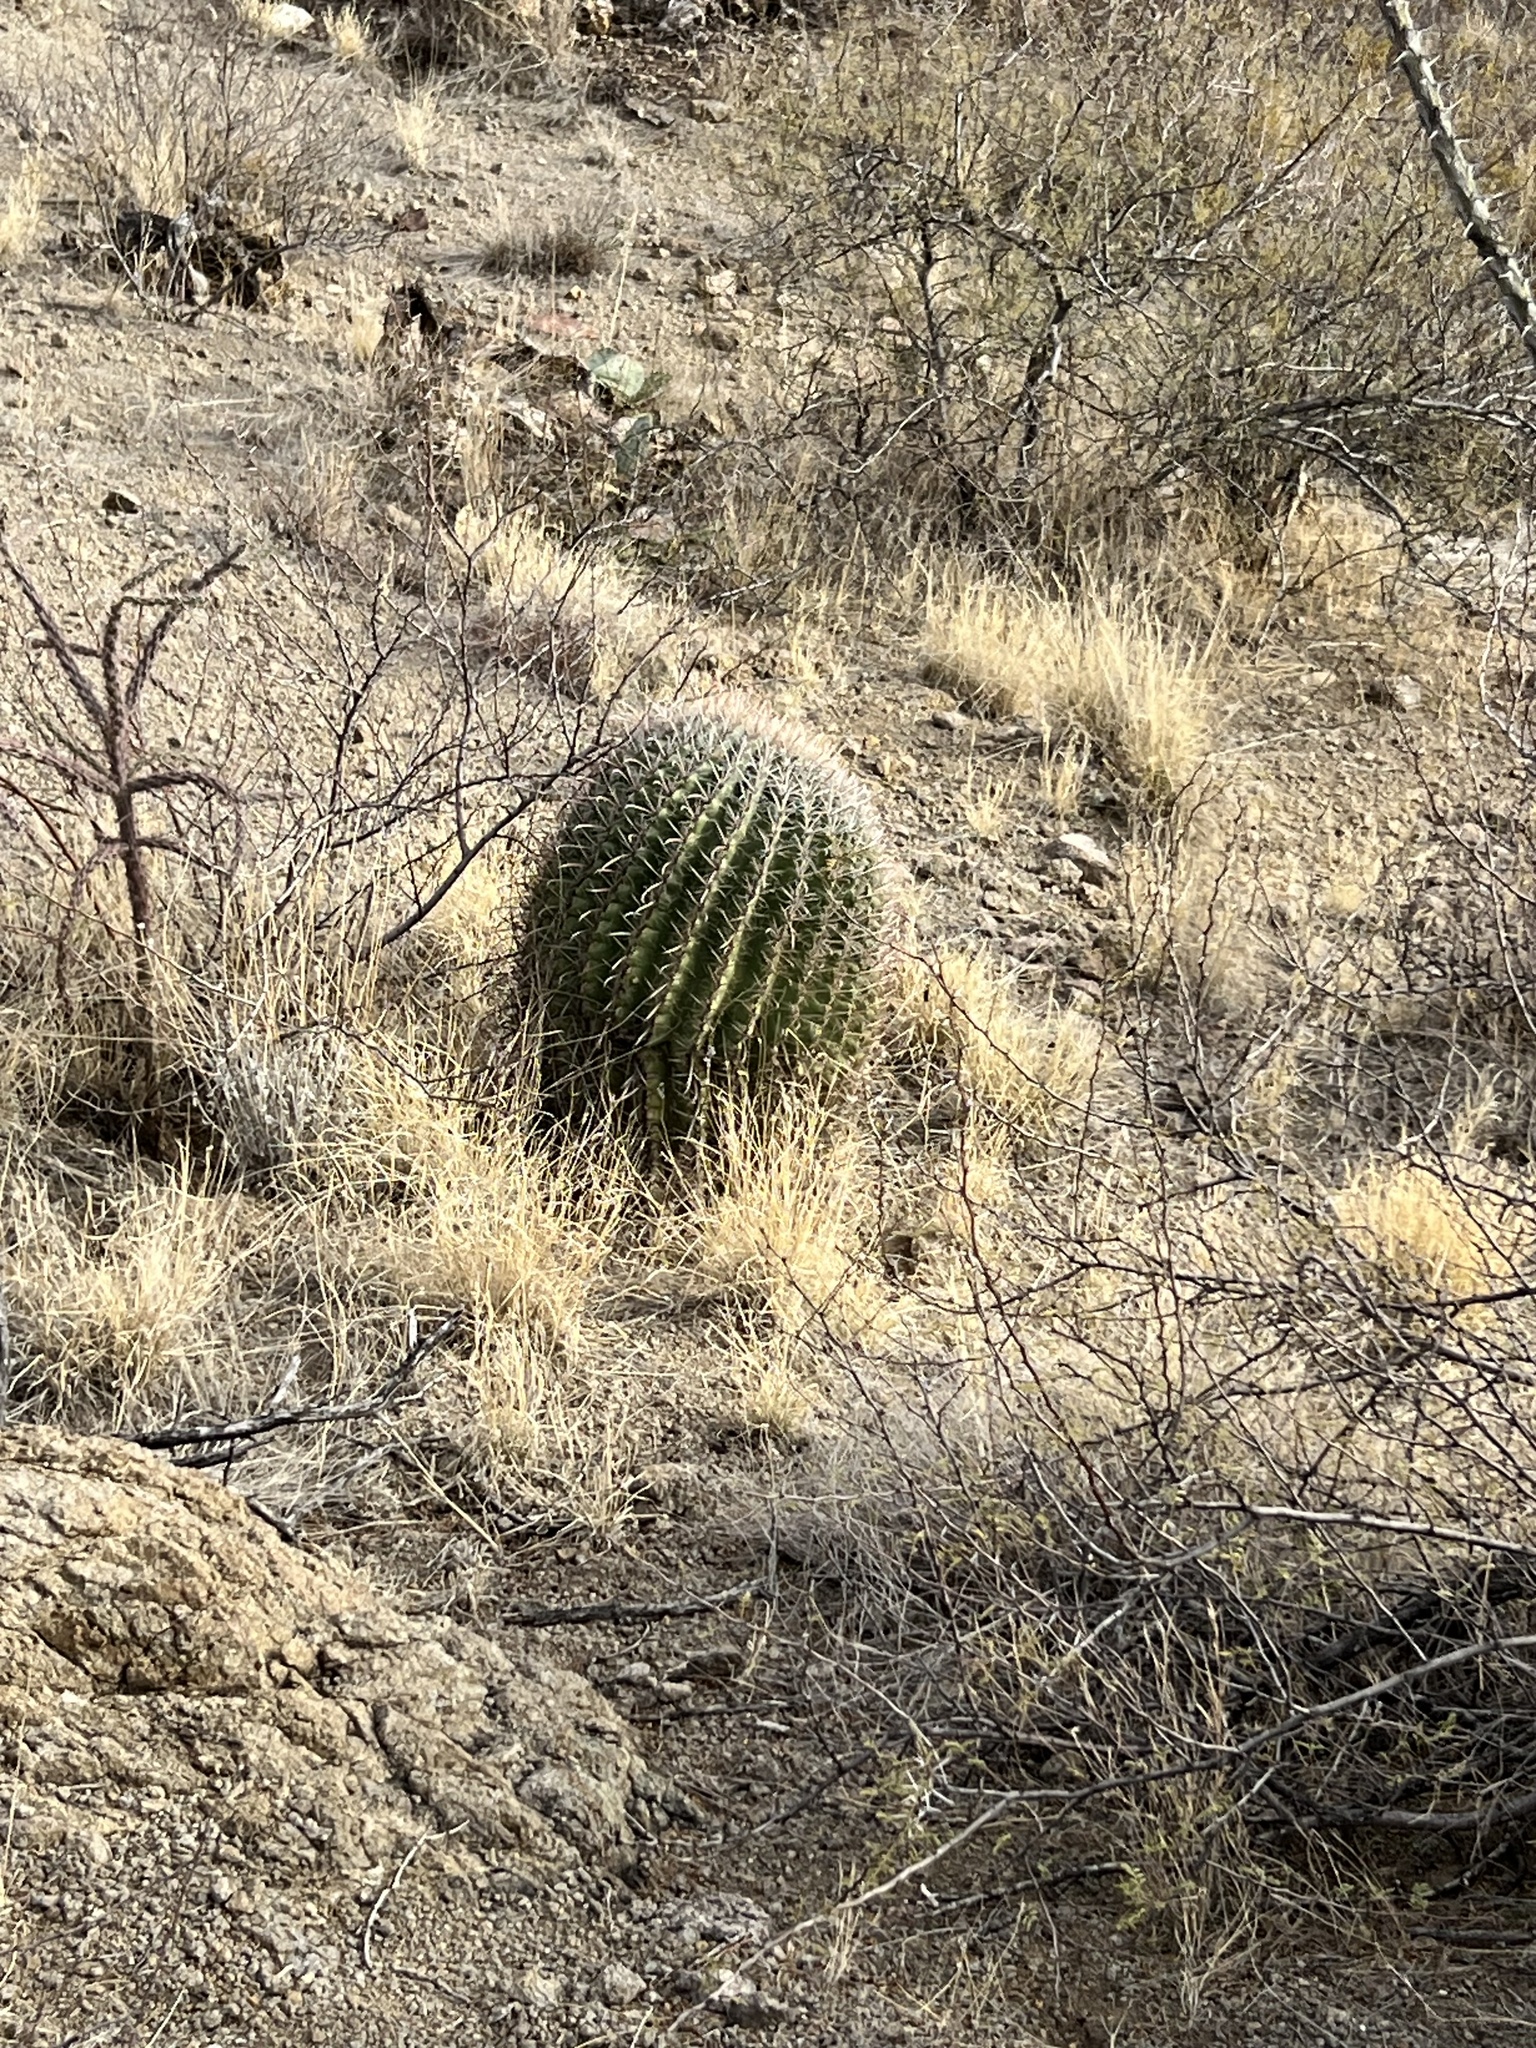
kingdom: Plantae
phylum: Tracheophyta
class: Magnoliopsida
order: Caryophyllales
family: Cactaceae
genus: Ferocactus
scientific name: Ferocactus wislizeni
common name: Candy barrel cactus
